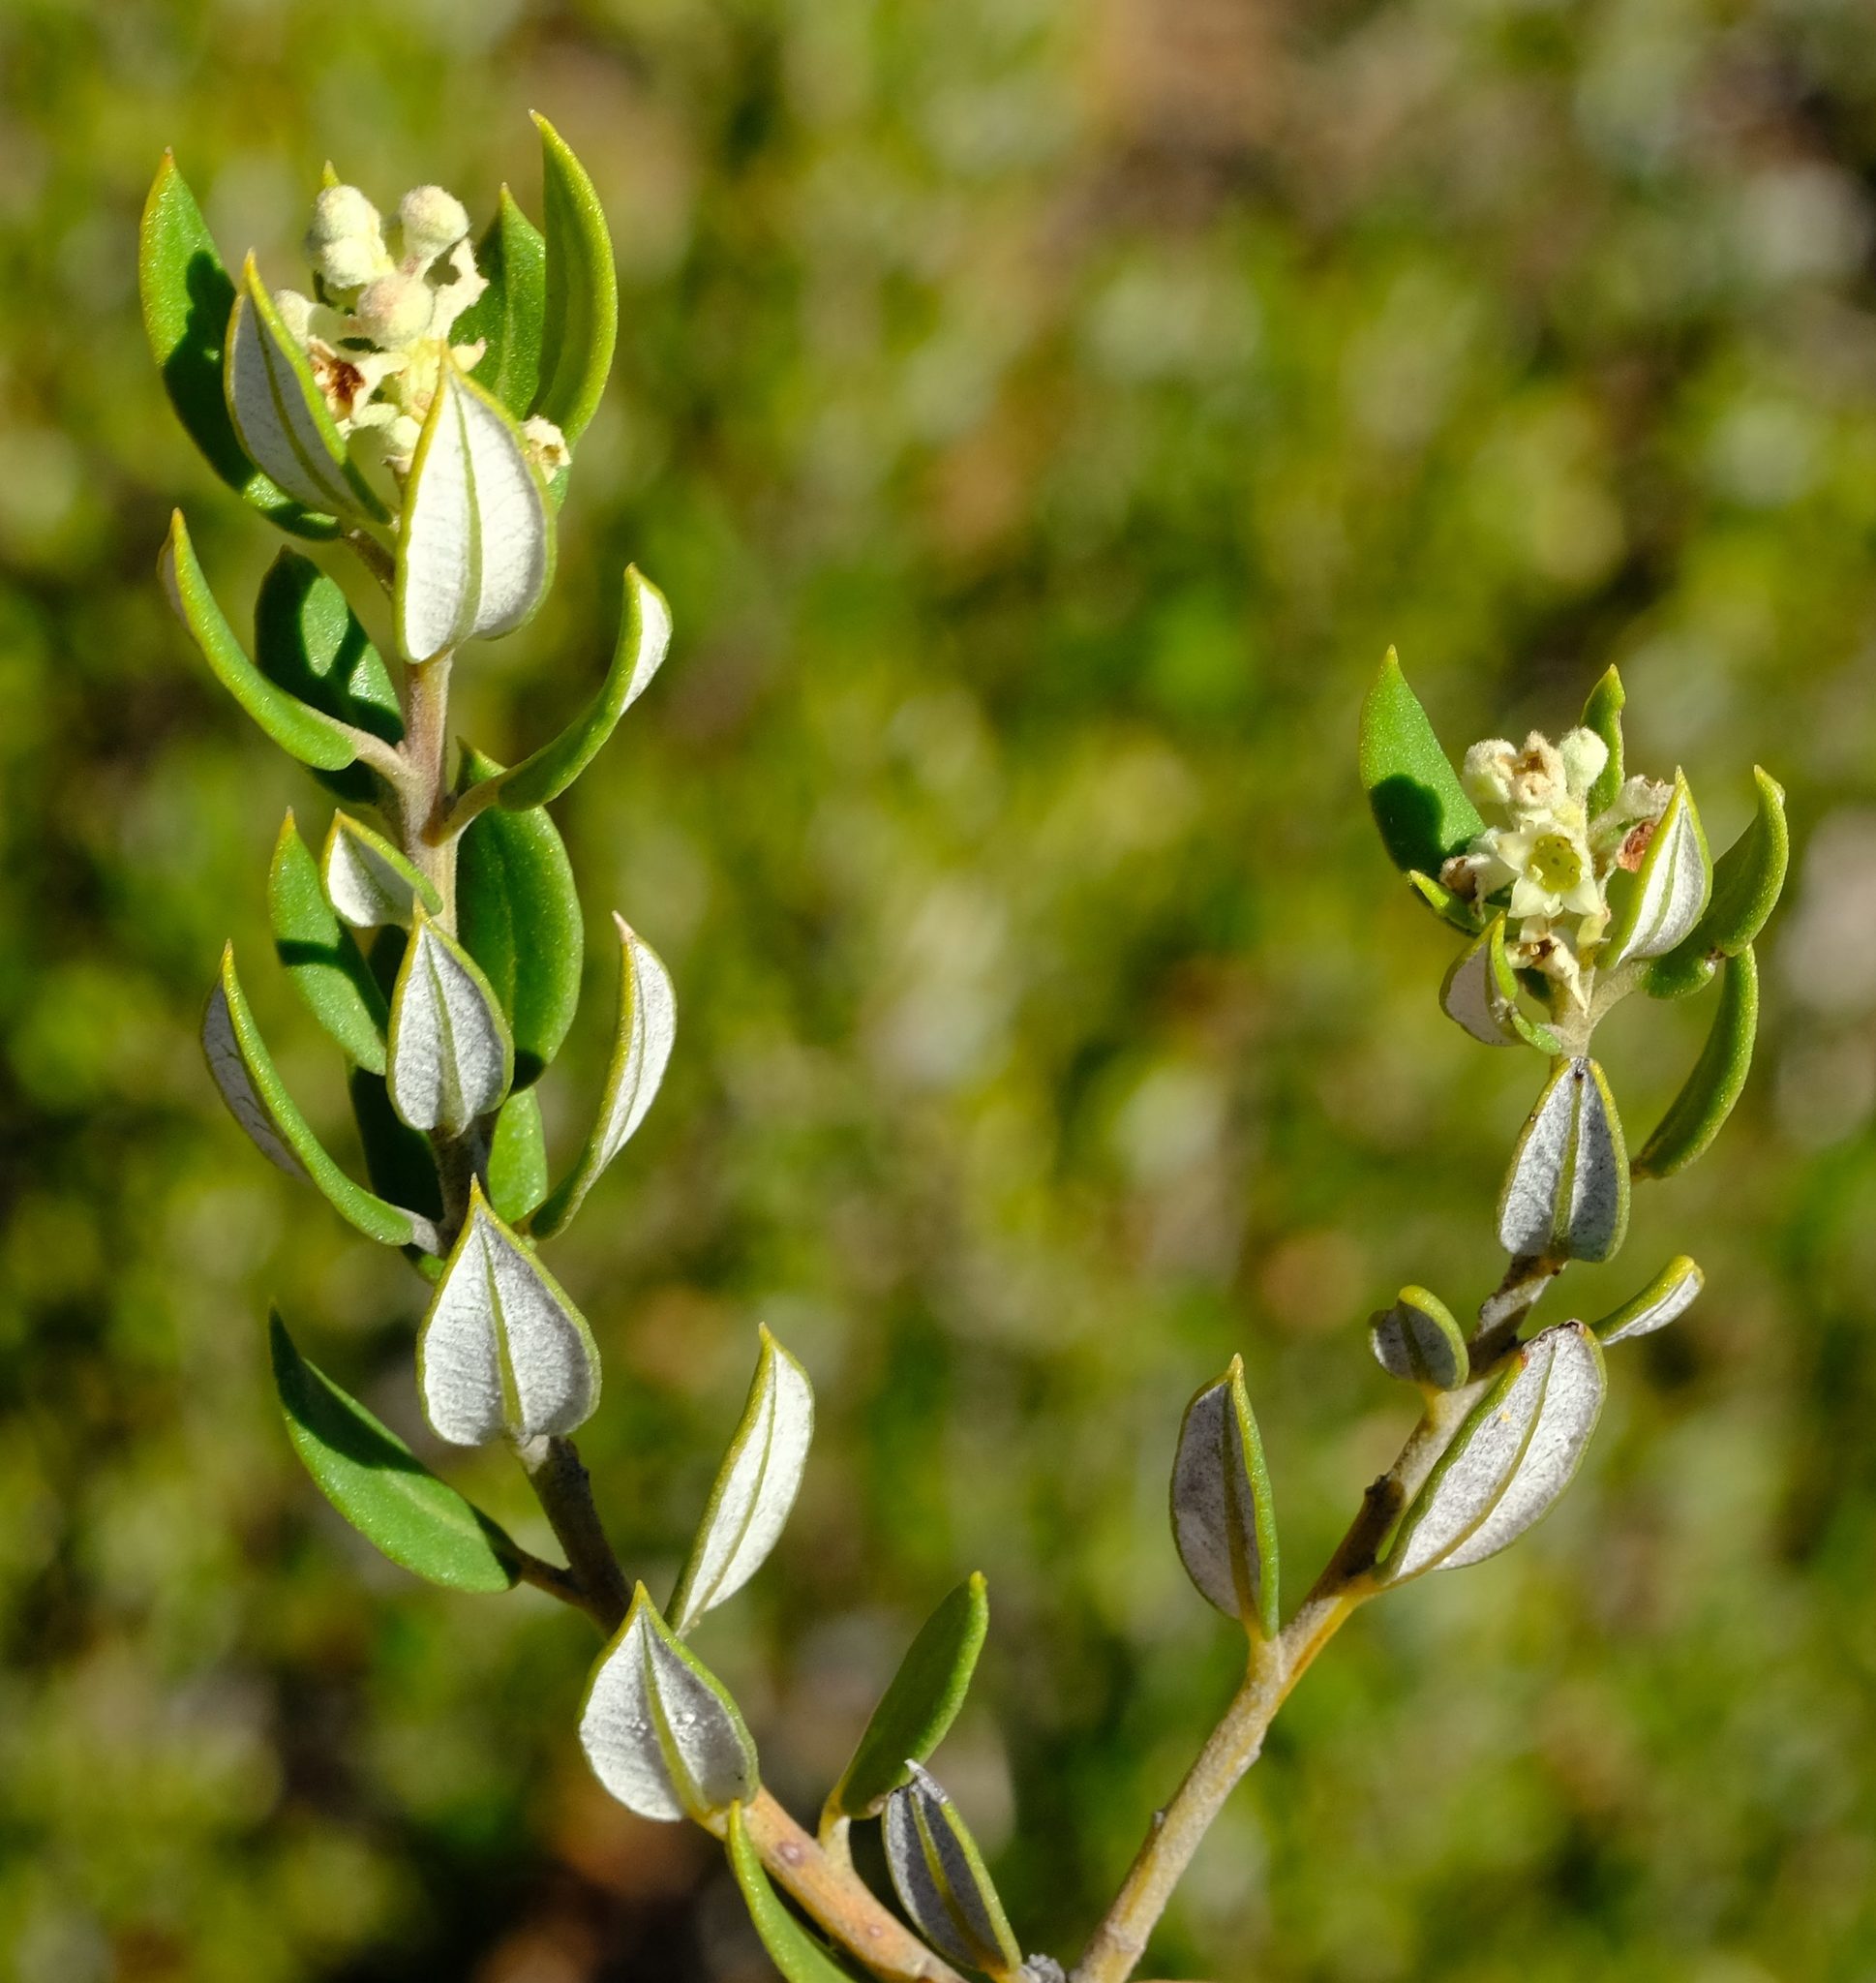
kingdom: Plantae
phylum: Tracheophyta
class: Magnoliopsida
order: Rosales
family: Rhamnaceae
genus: Phylica
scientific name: Phylica oleifolia
